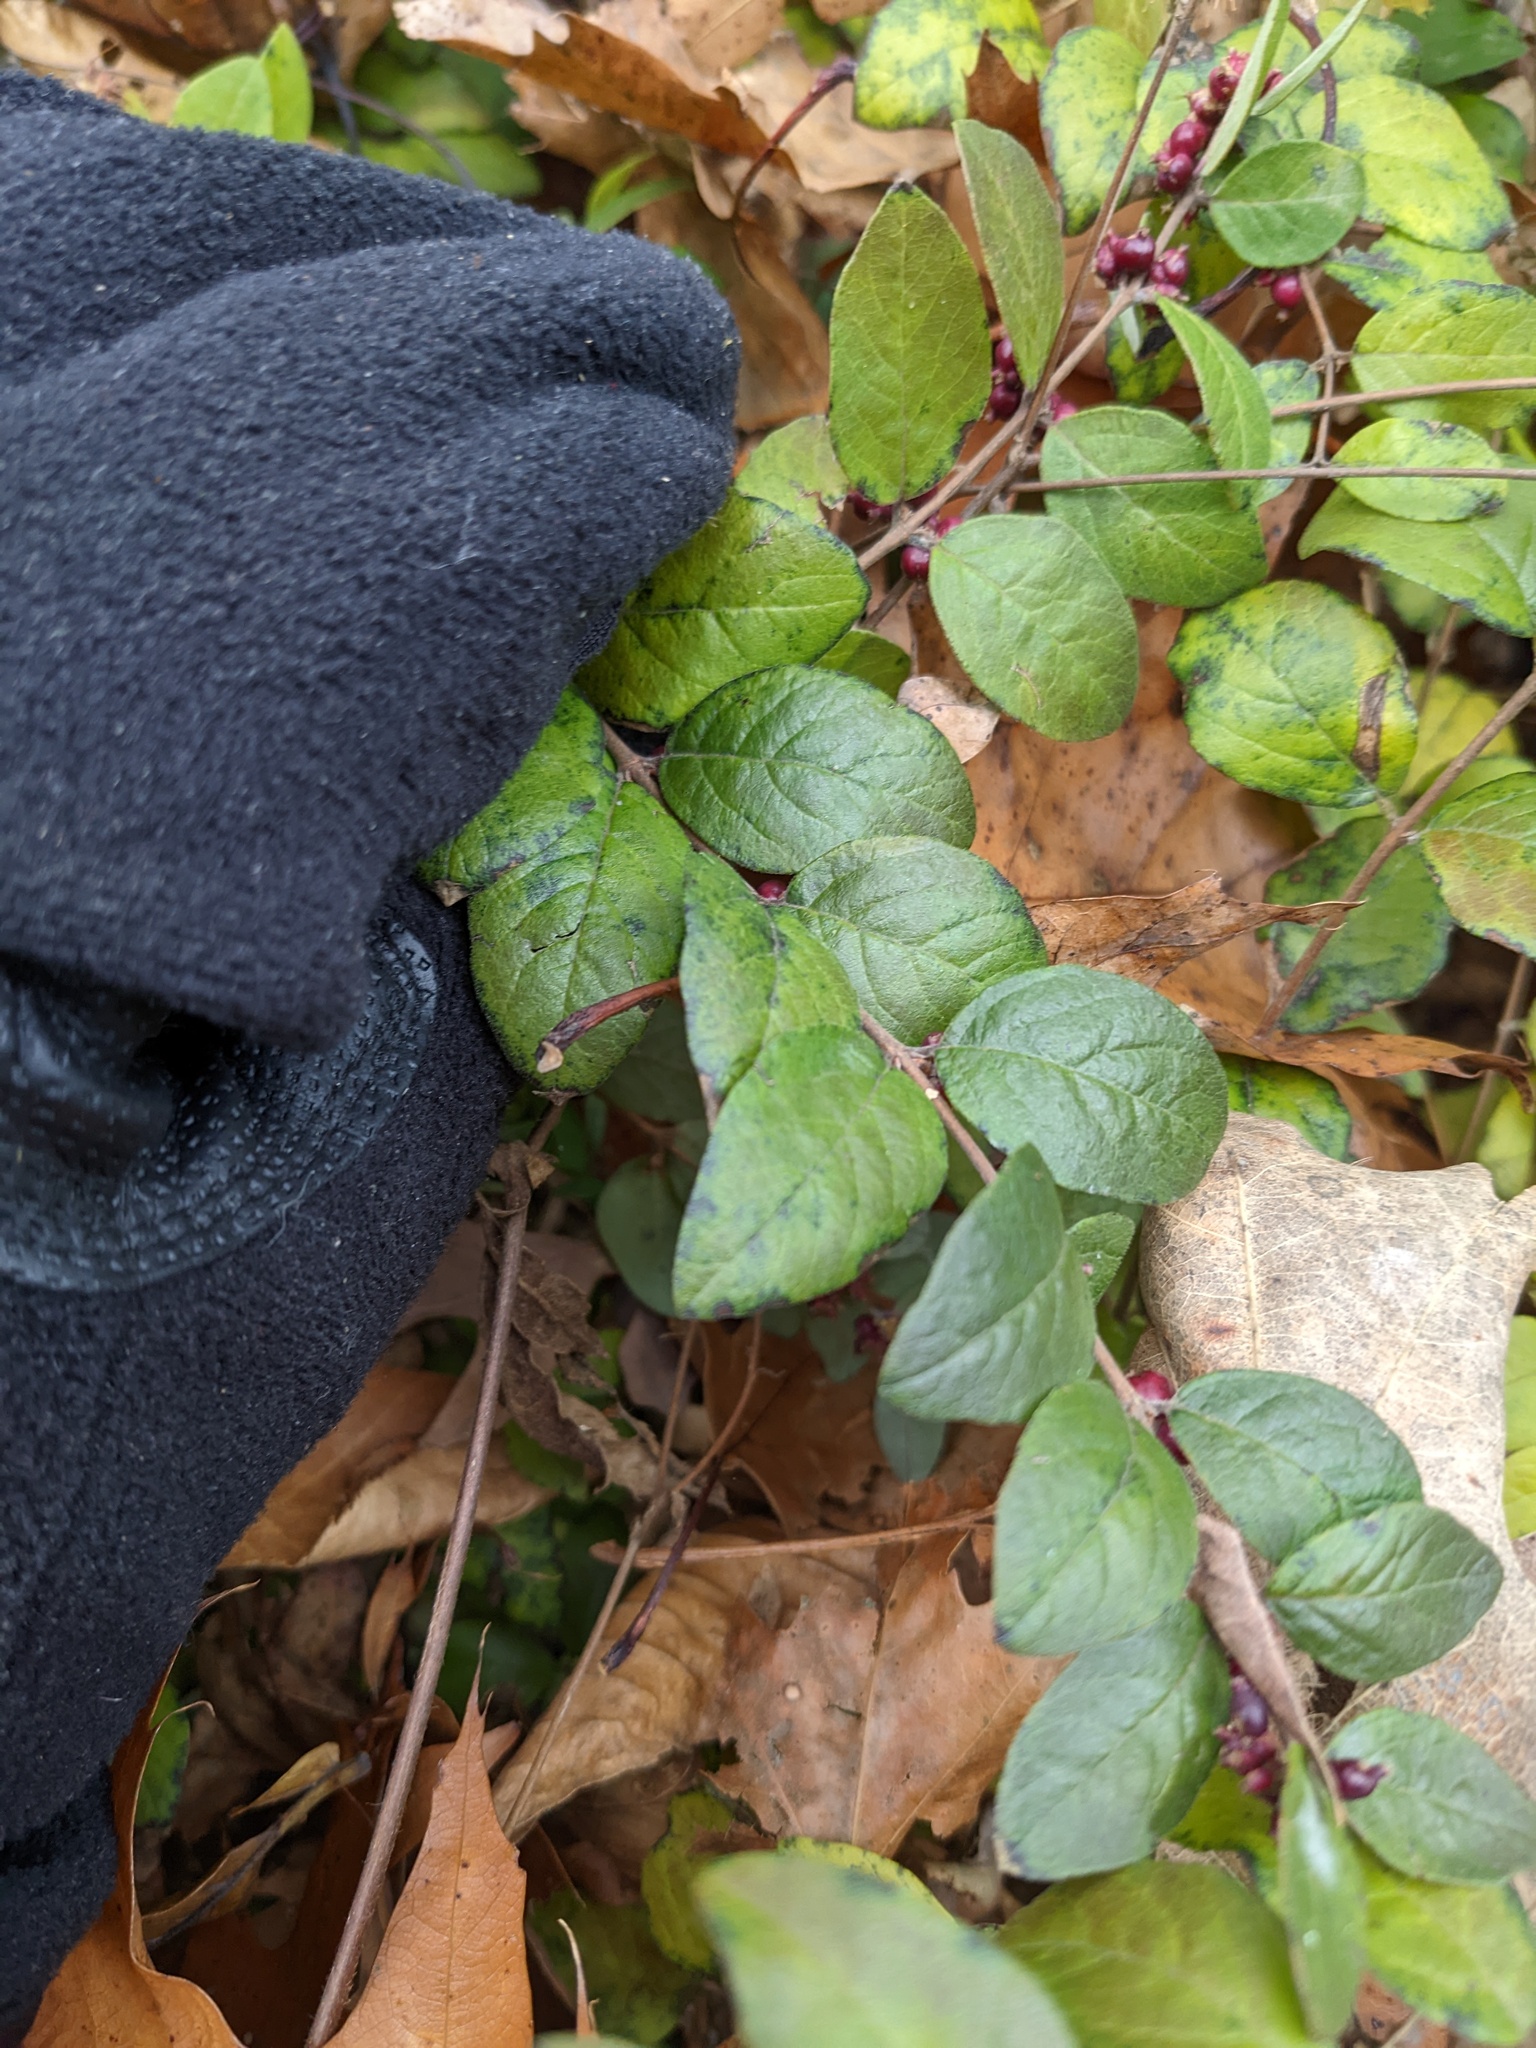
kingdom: Plantae
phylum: Tracheophyta
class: Magnoliopsida
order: Dipsacales
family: Caprifoliaceae
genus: Symphoricarpos
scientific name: Symphoricarpos orbiculatus
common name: Coralberry
